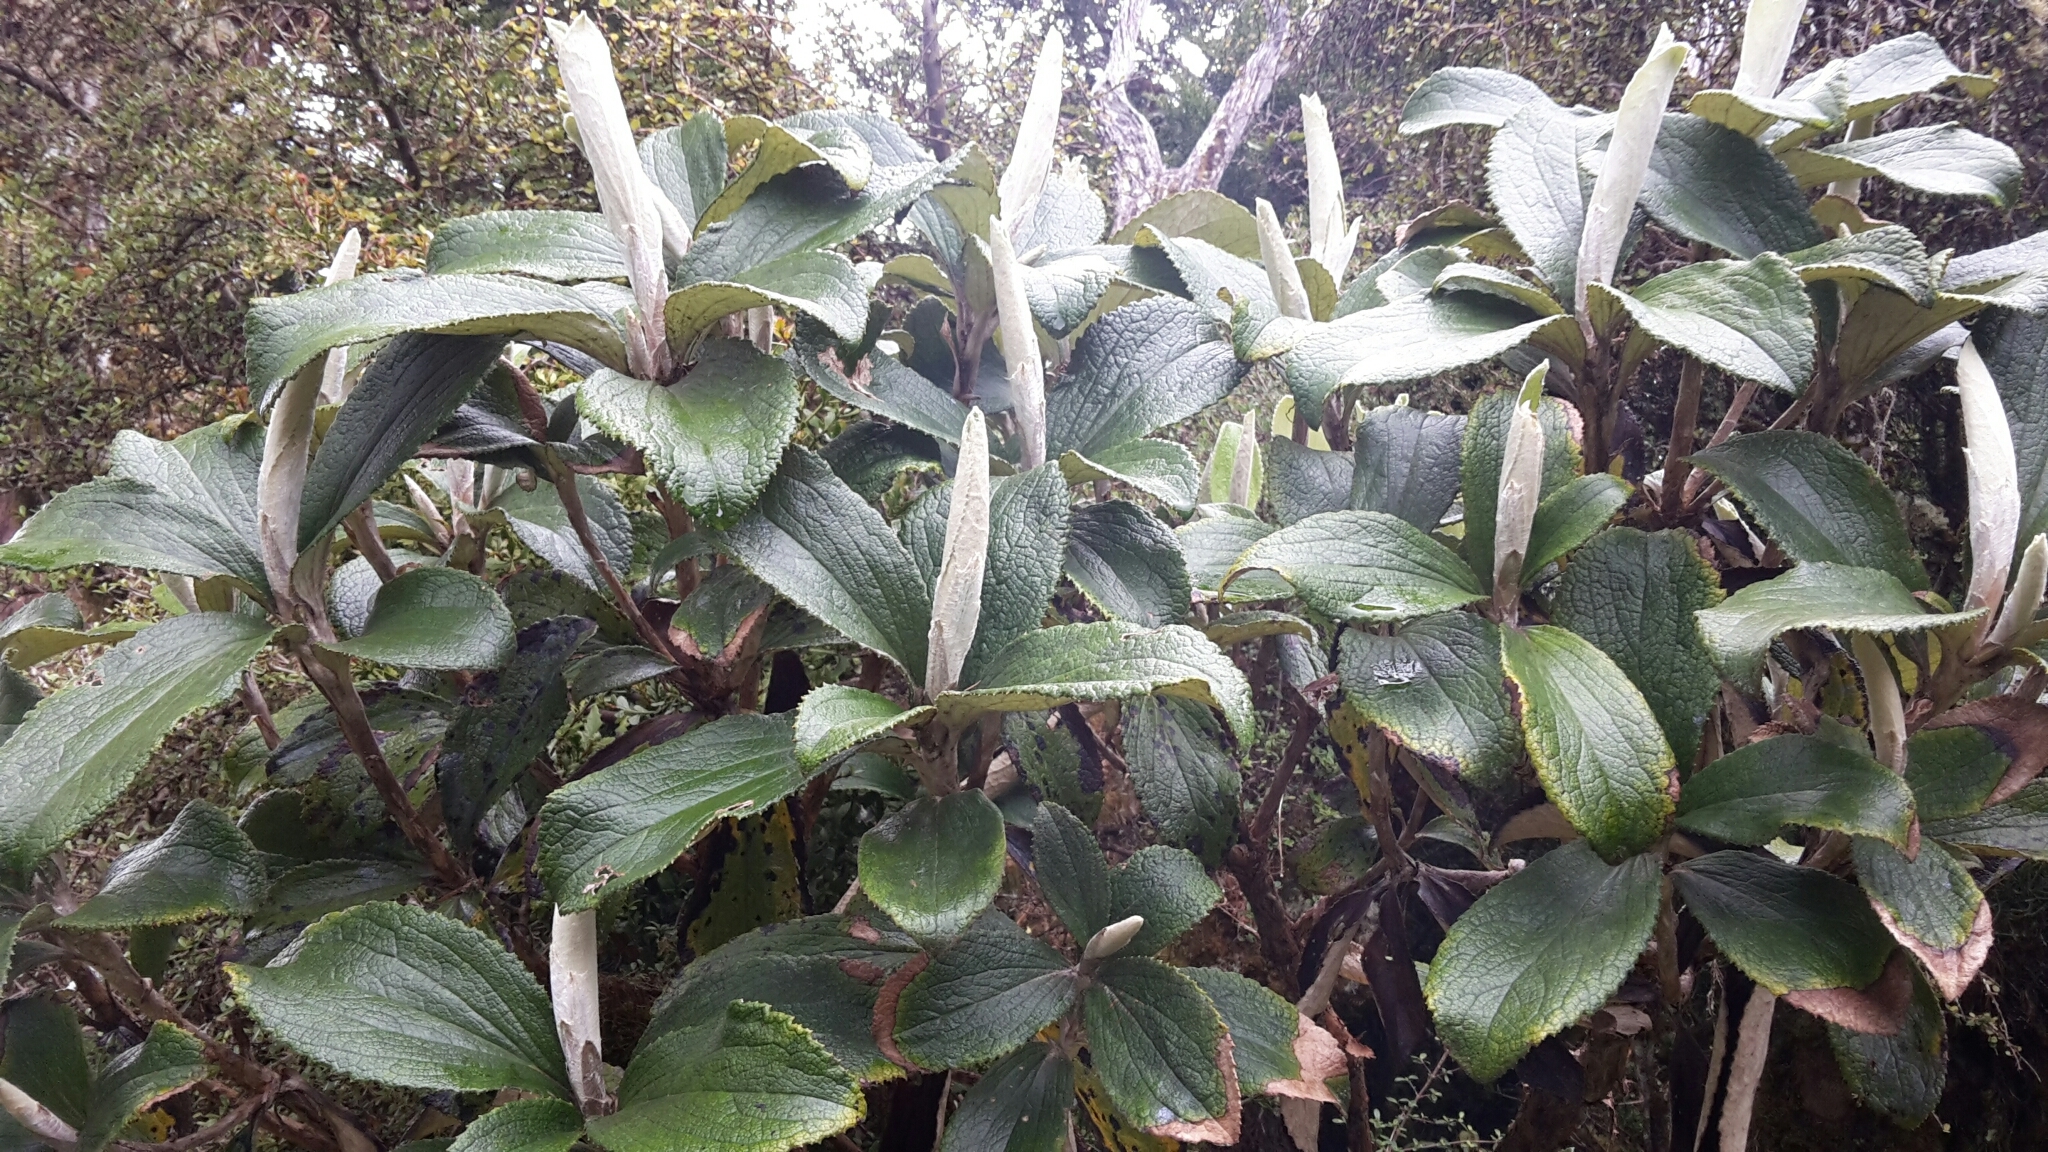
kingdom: Plantae
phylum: Tracheophyta
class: Magnoliopsida
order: Asterales
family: Asteraceae
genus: Macrolearia
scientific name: Macrolearia colensoi
